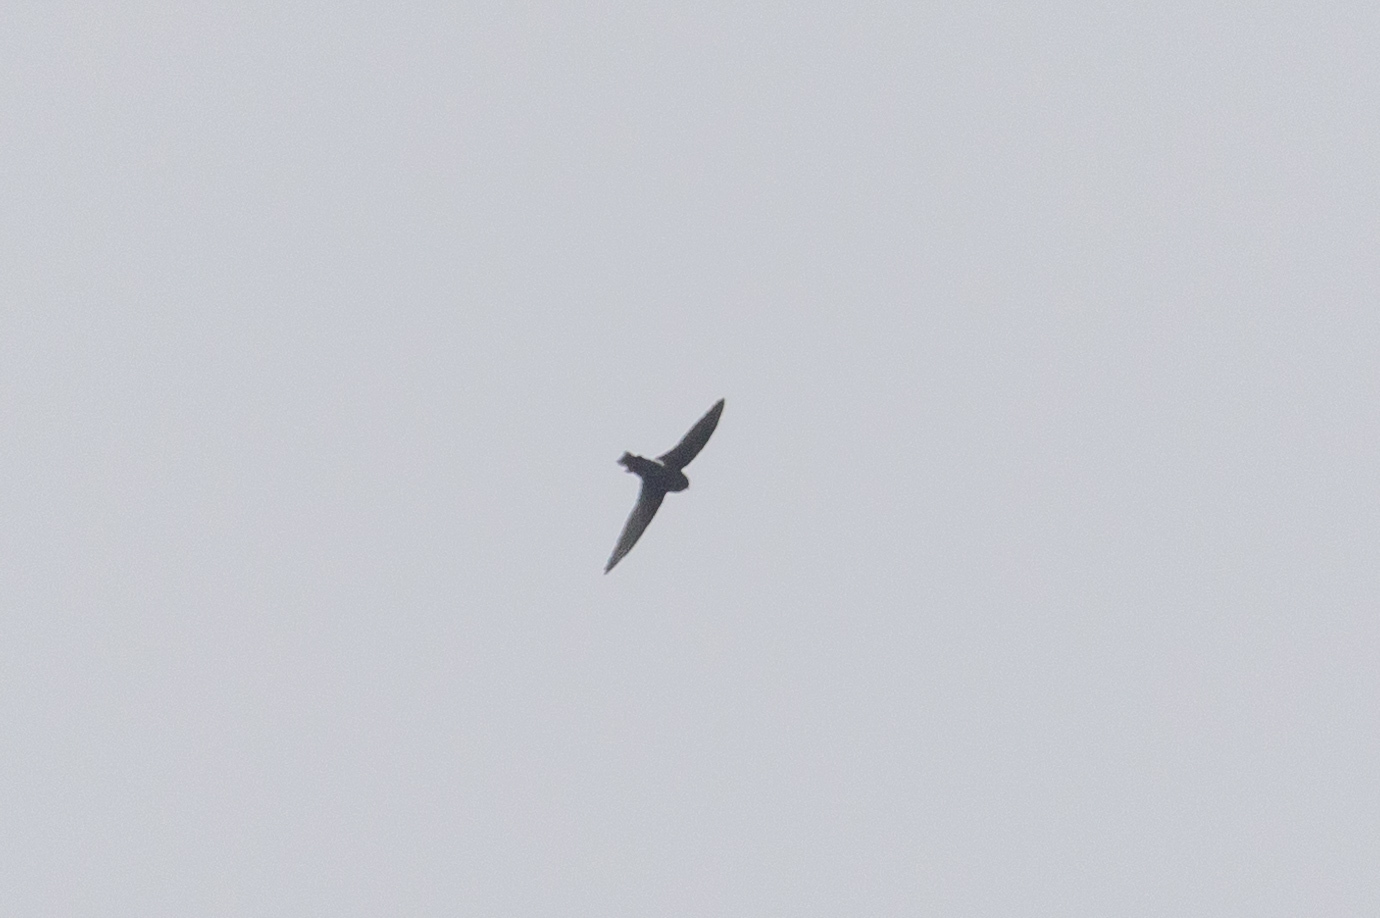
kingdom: Animalia
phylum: Chordata
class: Aves
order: Apodiformes
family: Apodidae
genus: Apus
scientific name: Apus nipalensis
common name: House swift
